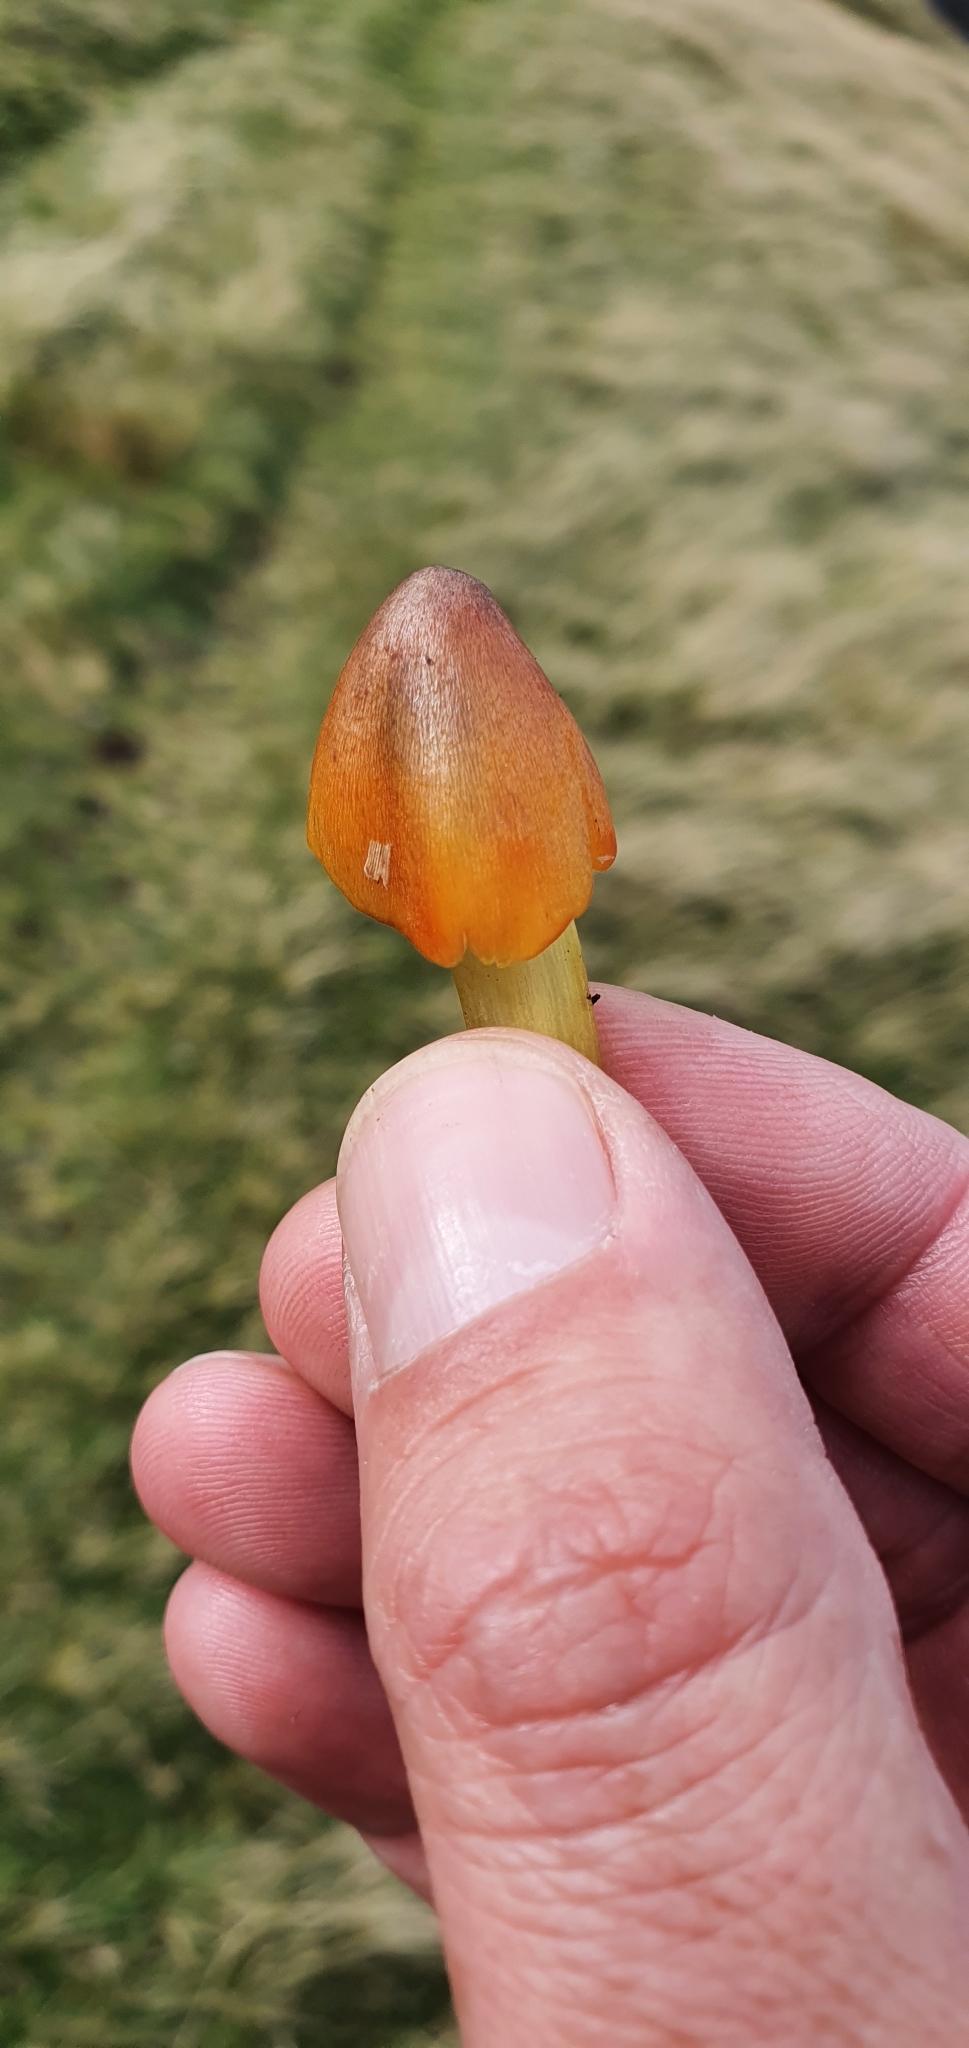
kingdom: Fungi
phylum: Basidiomycota
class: Agaricomycetes
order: Agaricales
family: Hygrophoraceae
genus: Hygrocybe
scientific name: Hygrocybe conica
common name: Blackening wax-cap
